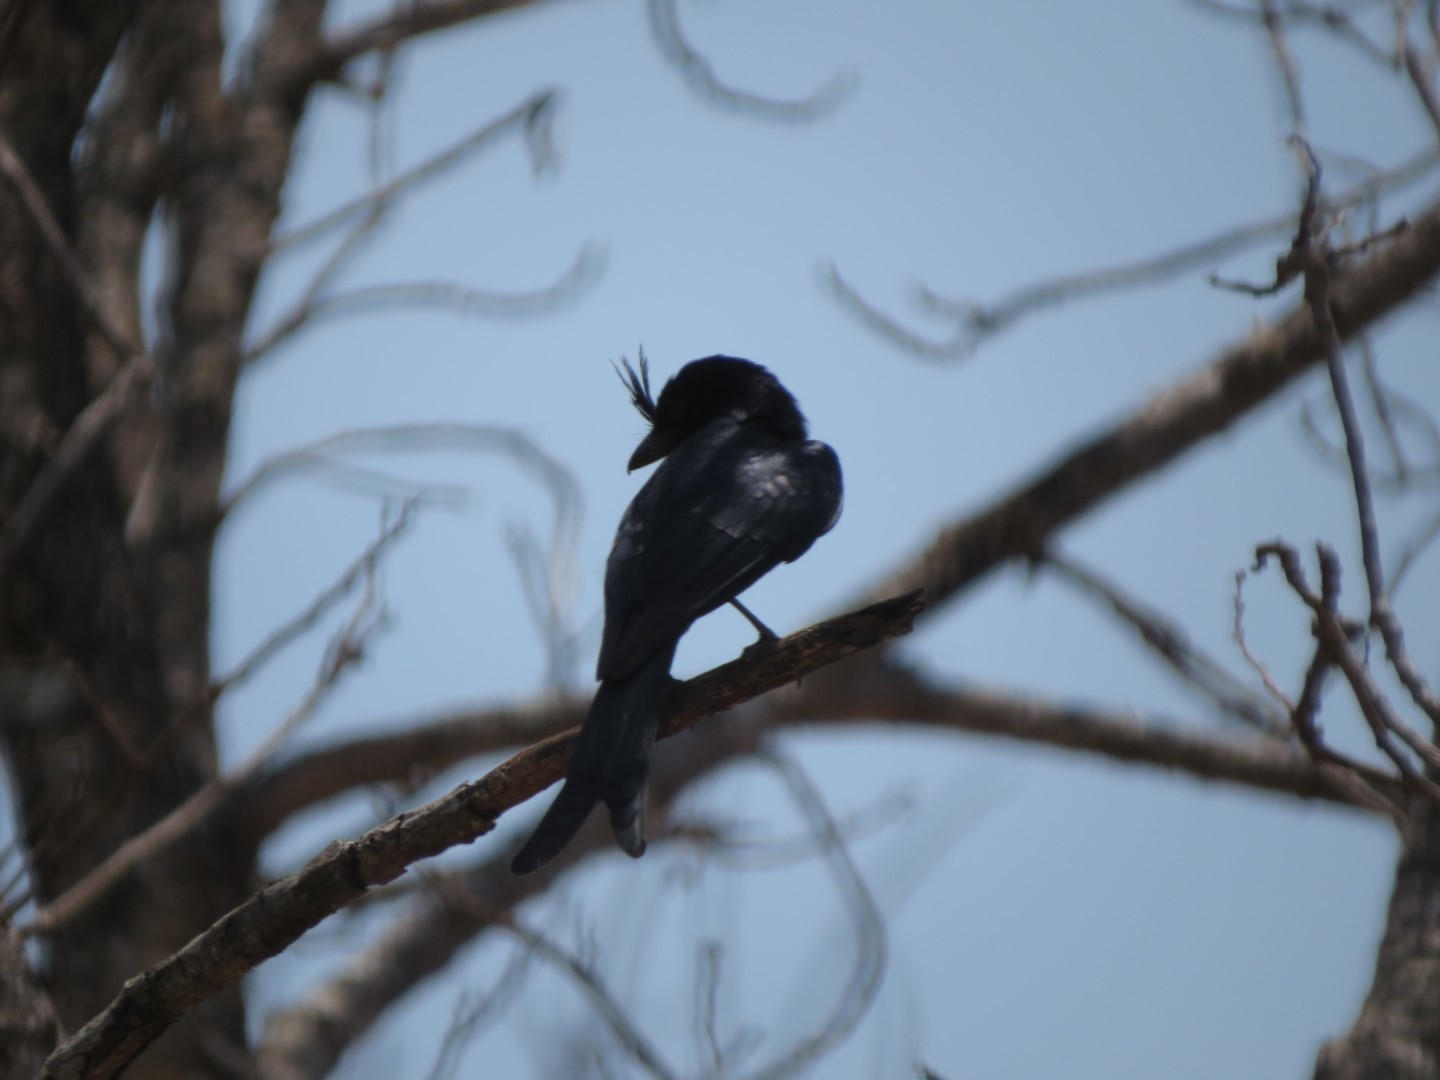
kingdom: Animalia
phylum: Chordata
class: Aves
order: Passeriformes
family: Dicruridae
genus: Dicrurus
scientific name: Dicrurus forficatus
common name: Crested drongo
